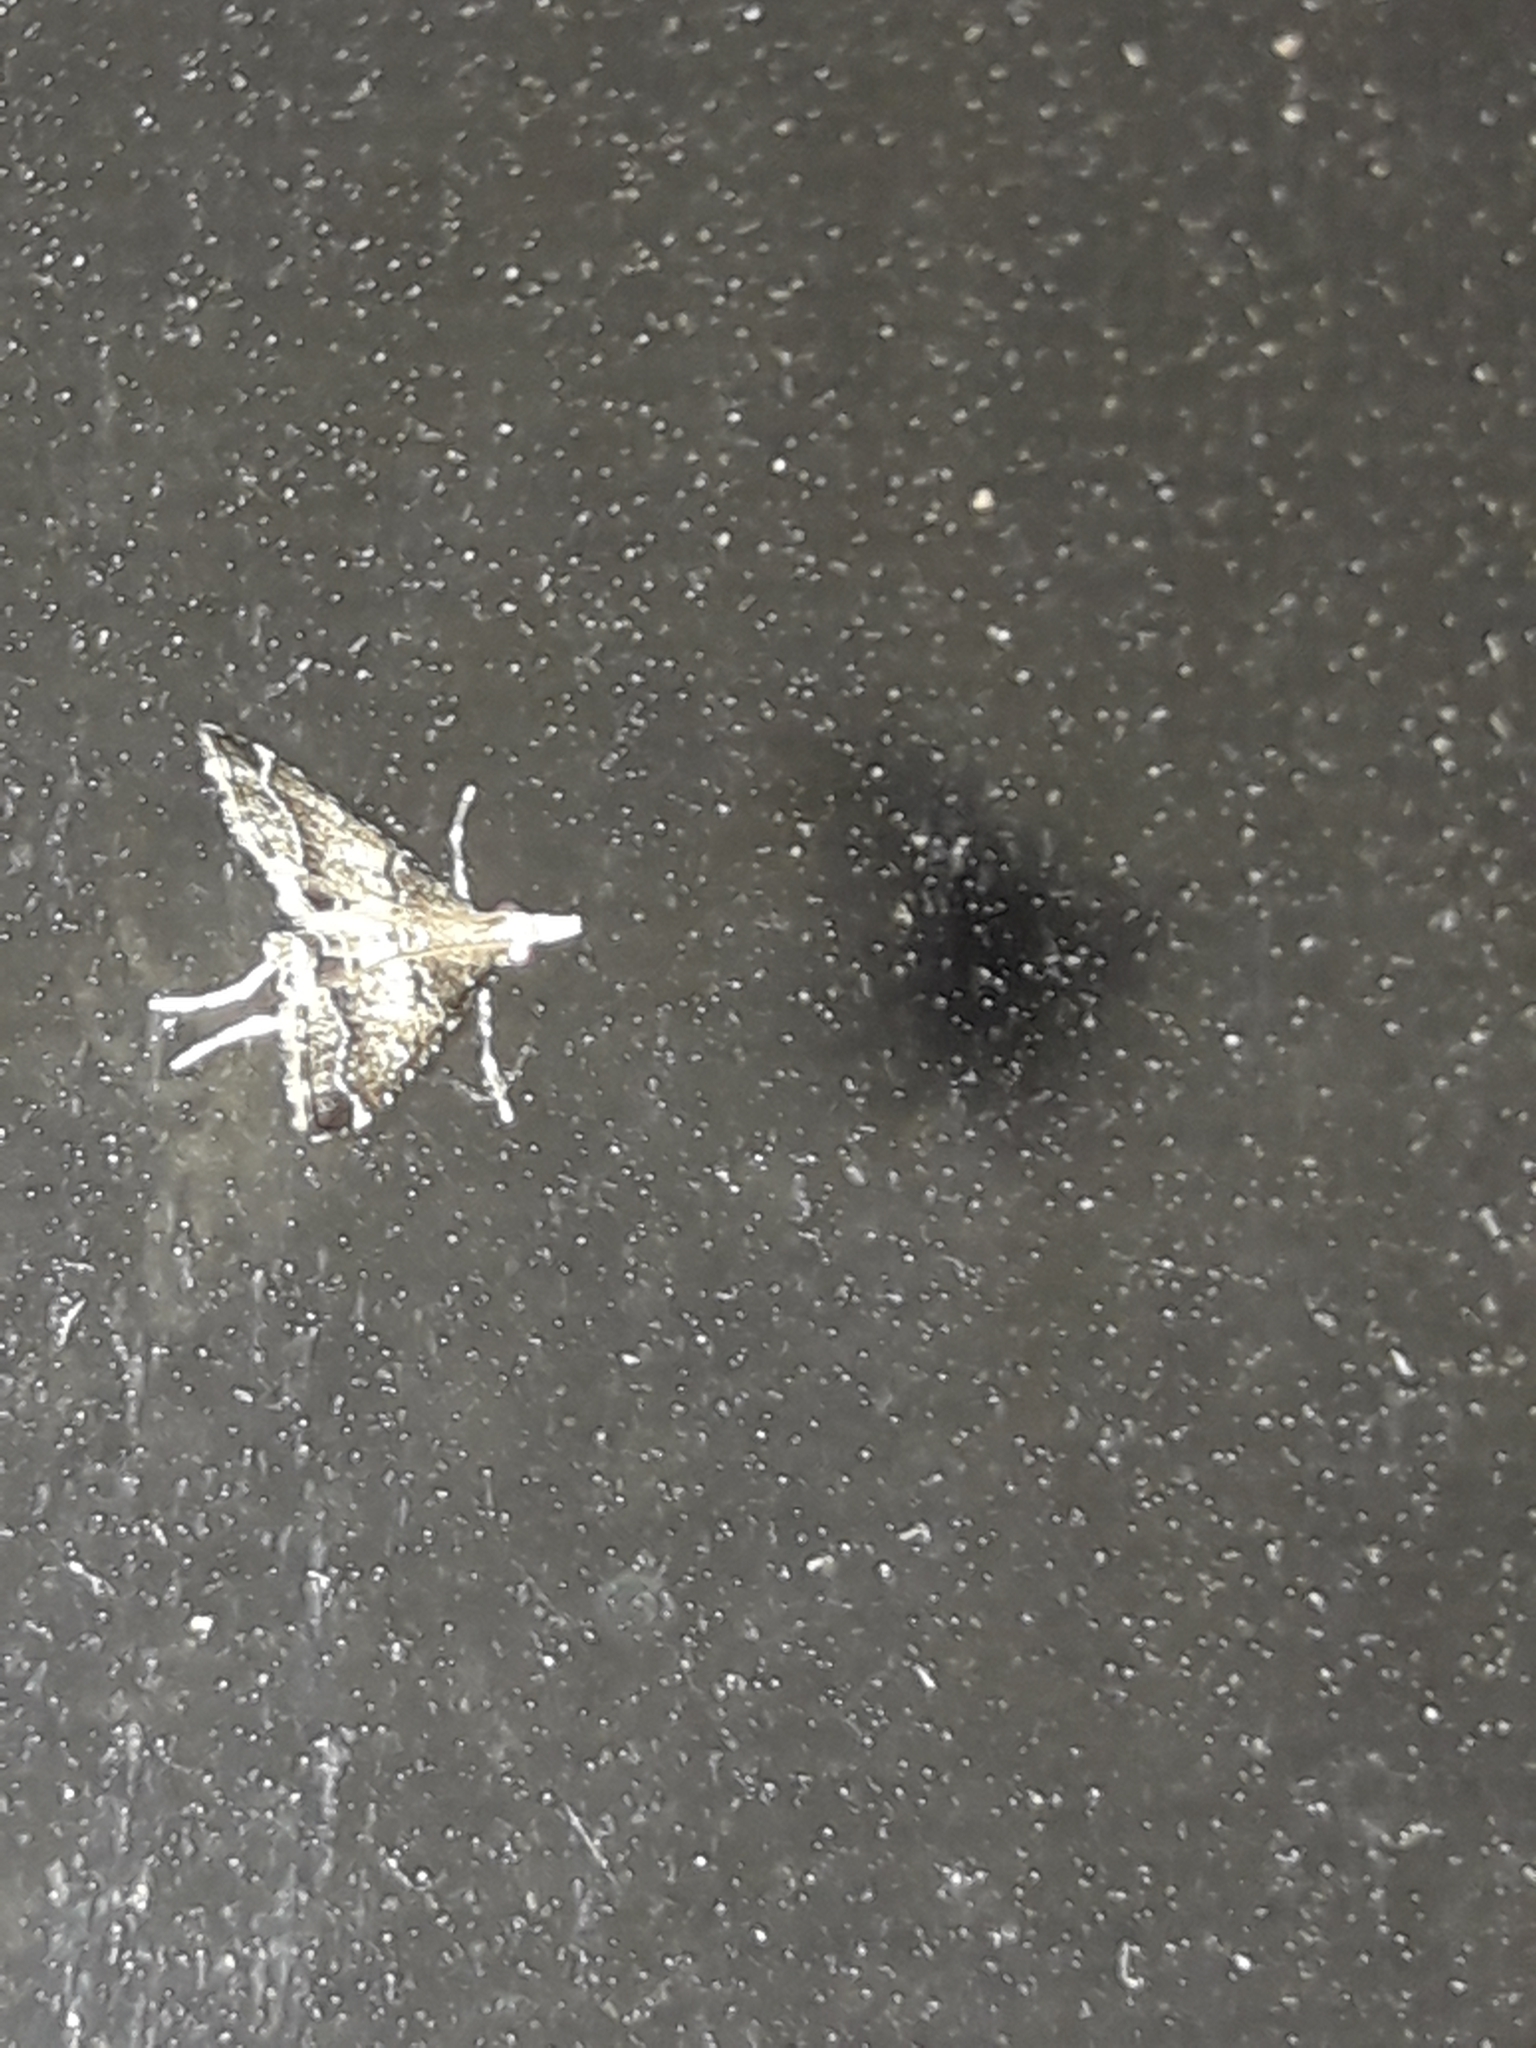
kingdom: Animalia
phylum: Arthropoda
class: Insecta
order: Lepidoptera
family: Crambidae
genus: Diplopseustis
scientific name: Diplopseustis perieresalis
